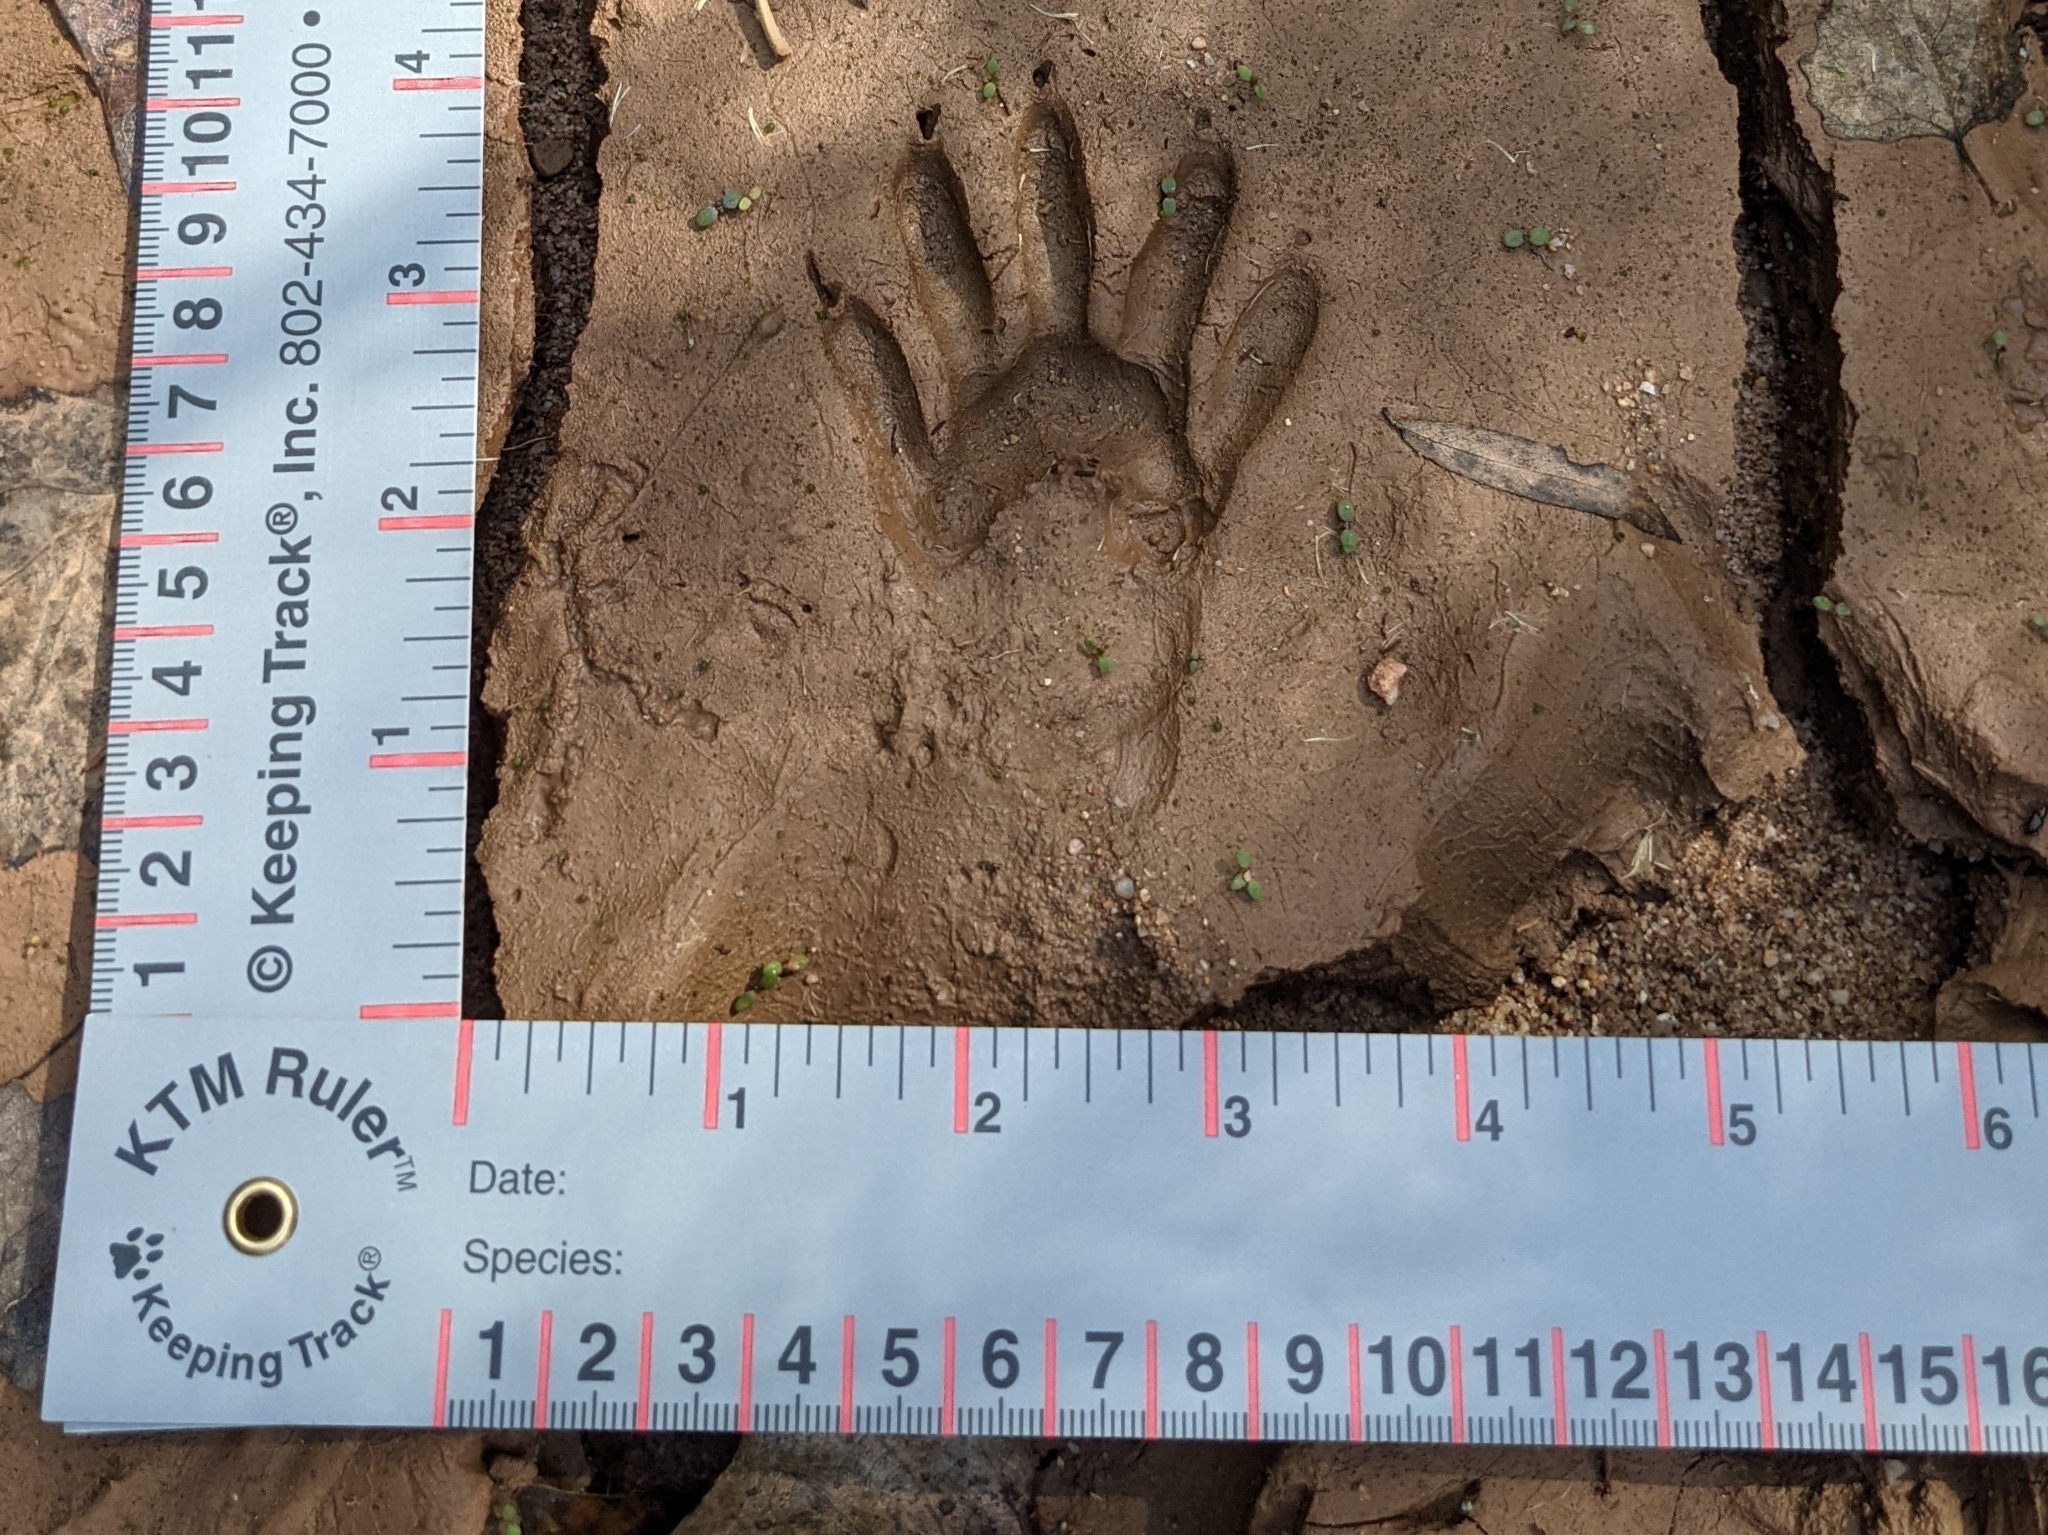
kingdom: Animalia
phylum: Chordata
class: Mammalia
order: Carnivora
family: Procyonidae
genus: Procyon
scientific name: Procyon lotor
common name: Raccoon
